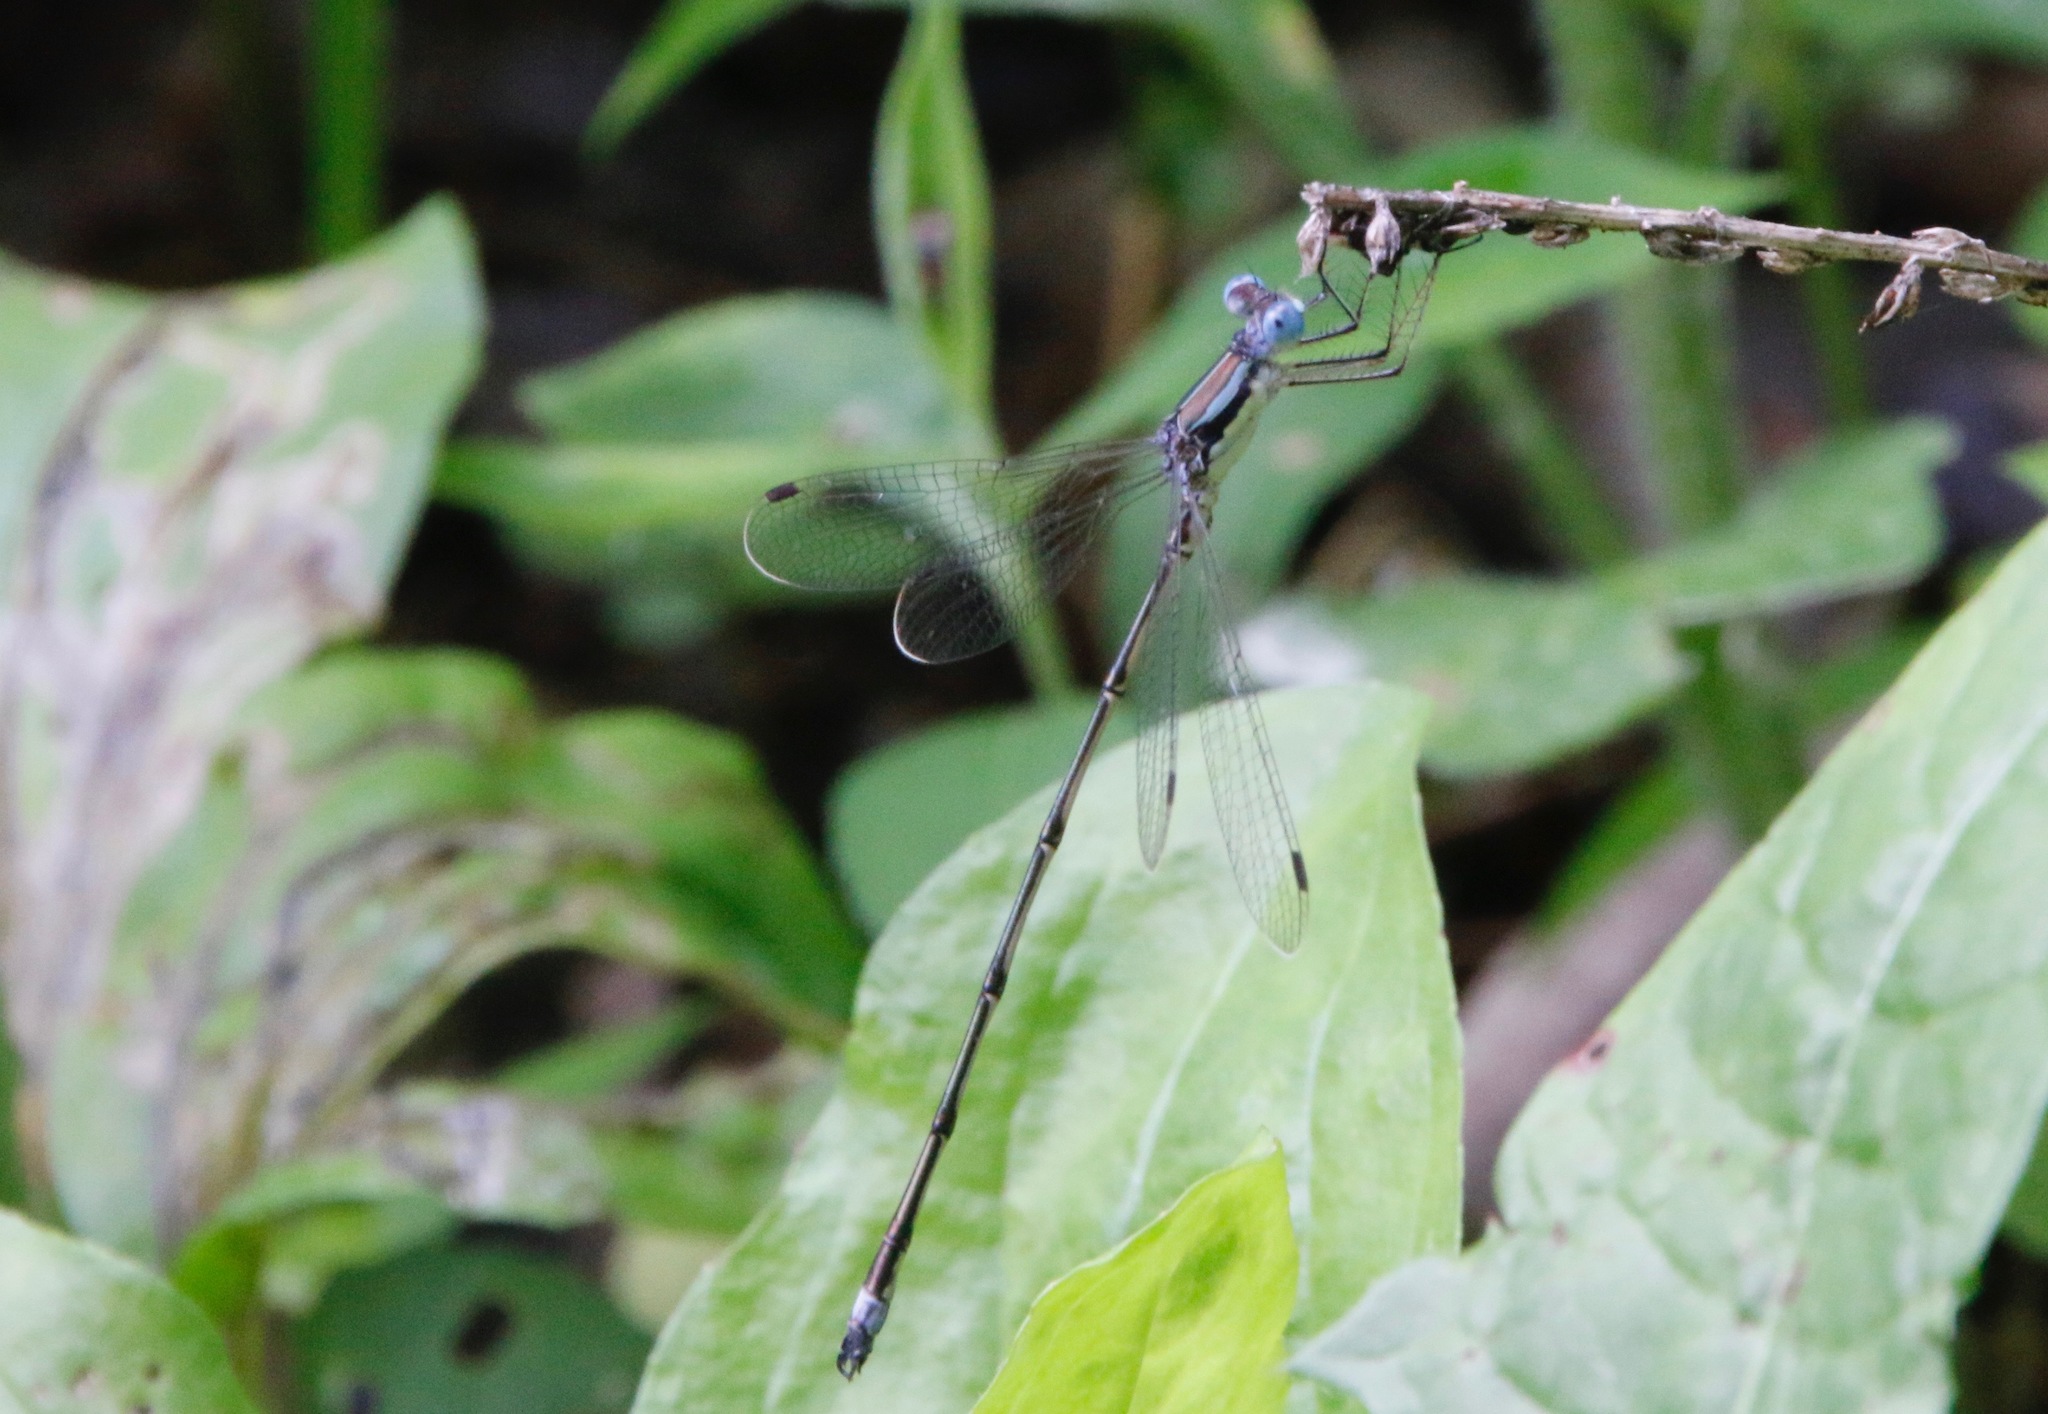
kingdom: Animalia
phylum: Arthropoda
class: Insecta
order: Odonata
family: Lestidae
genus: Lestes
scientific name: Lestes rectangularis
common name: Slender spreadwing
